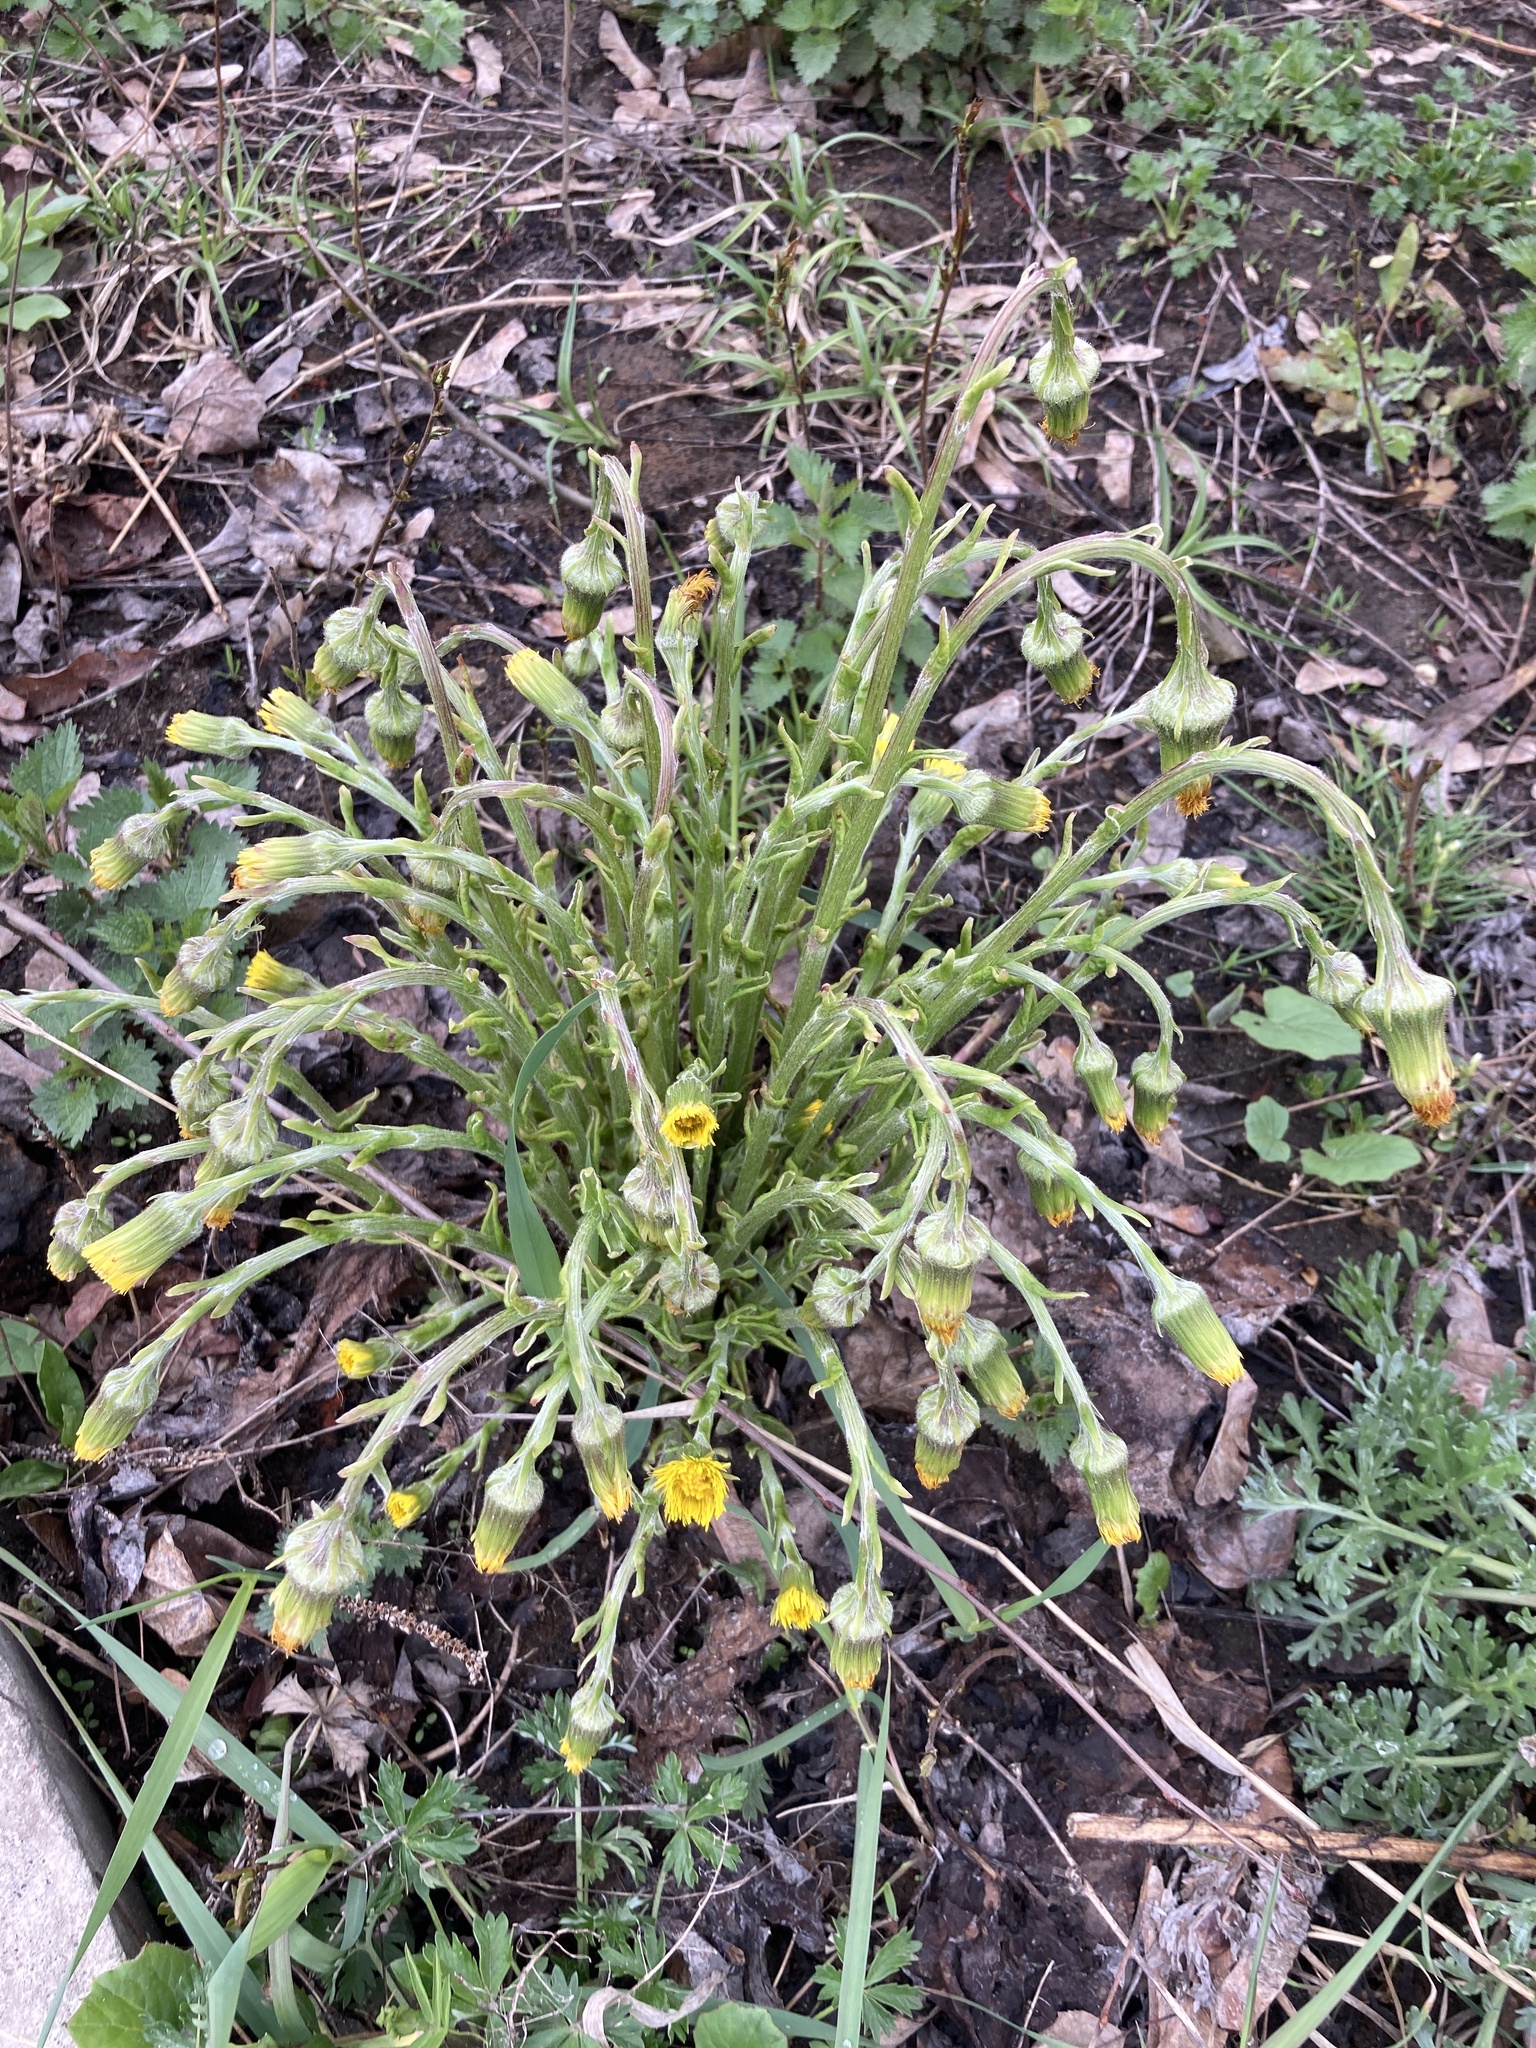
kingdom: Plantae
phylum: Tracheophyta
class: Magnoliopsida
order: Asterales
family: Asteraceae
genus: Tussilago
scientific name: Tussilago farfara
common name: Coltsfoot
